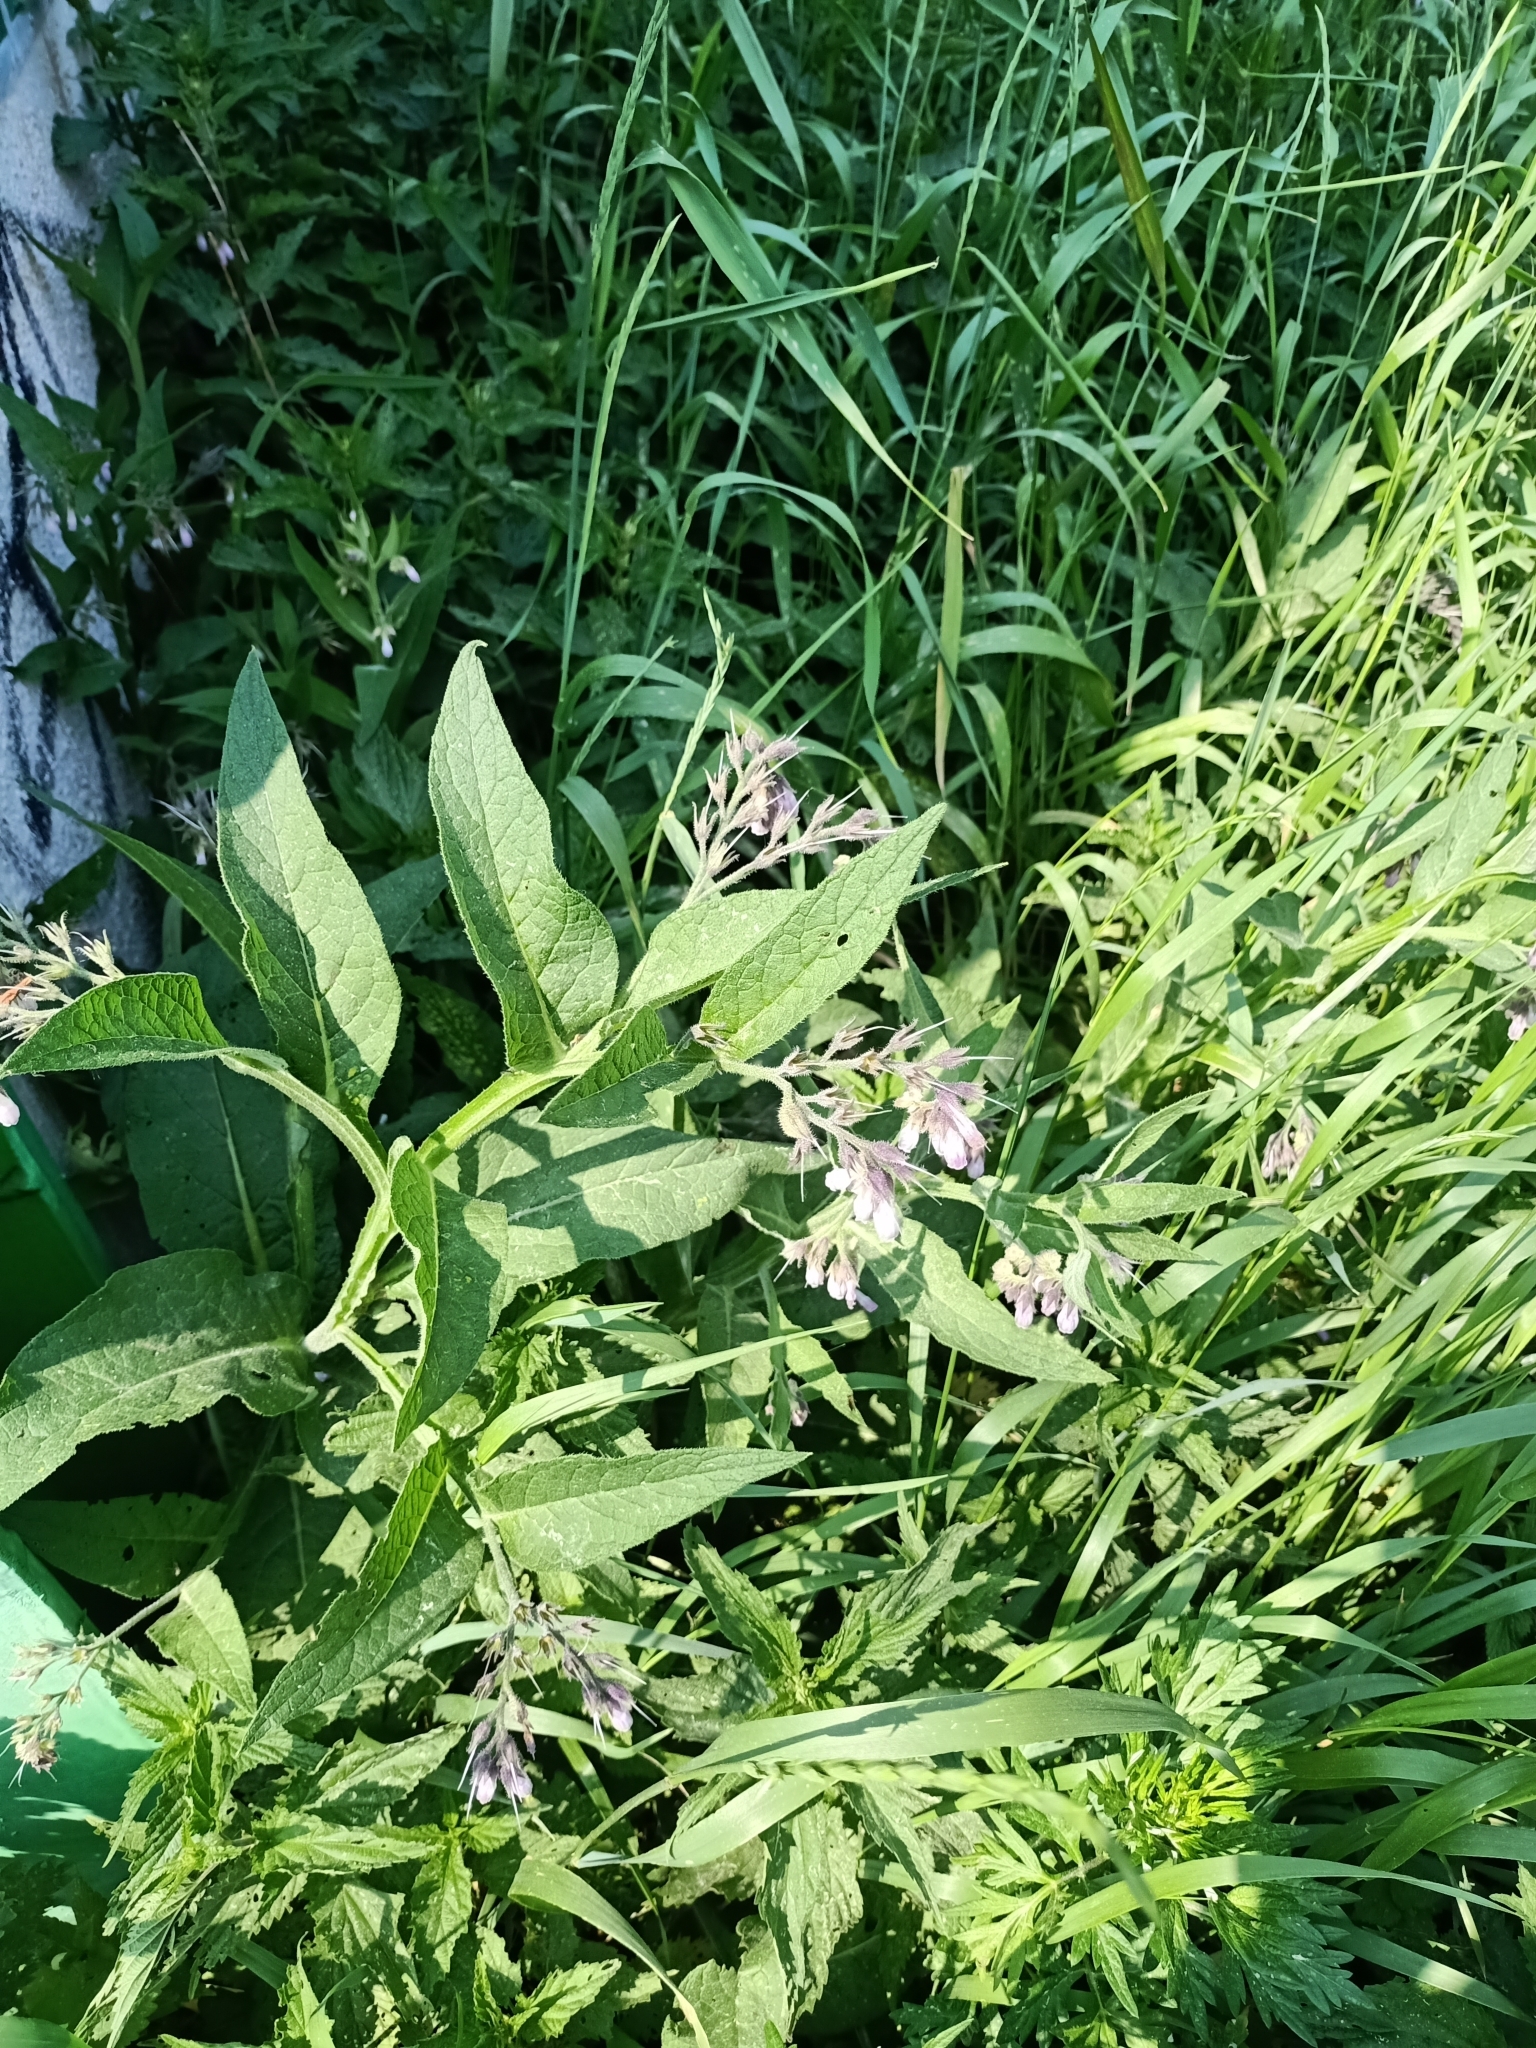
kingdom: Plantae
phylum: Tracheophyta
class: Magnoliopsida
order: Boraginales
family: Boraginaceae
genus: Symphytum
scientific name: Symphytum officinale
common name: Common comfrey
